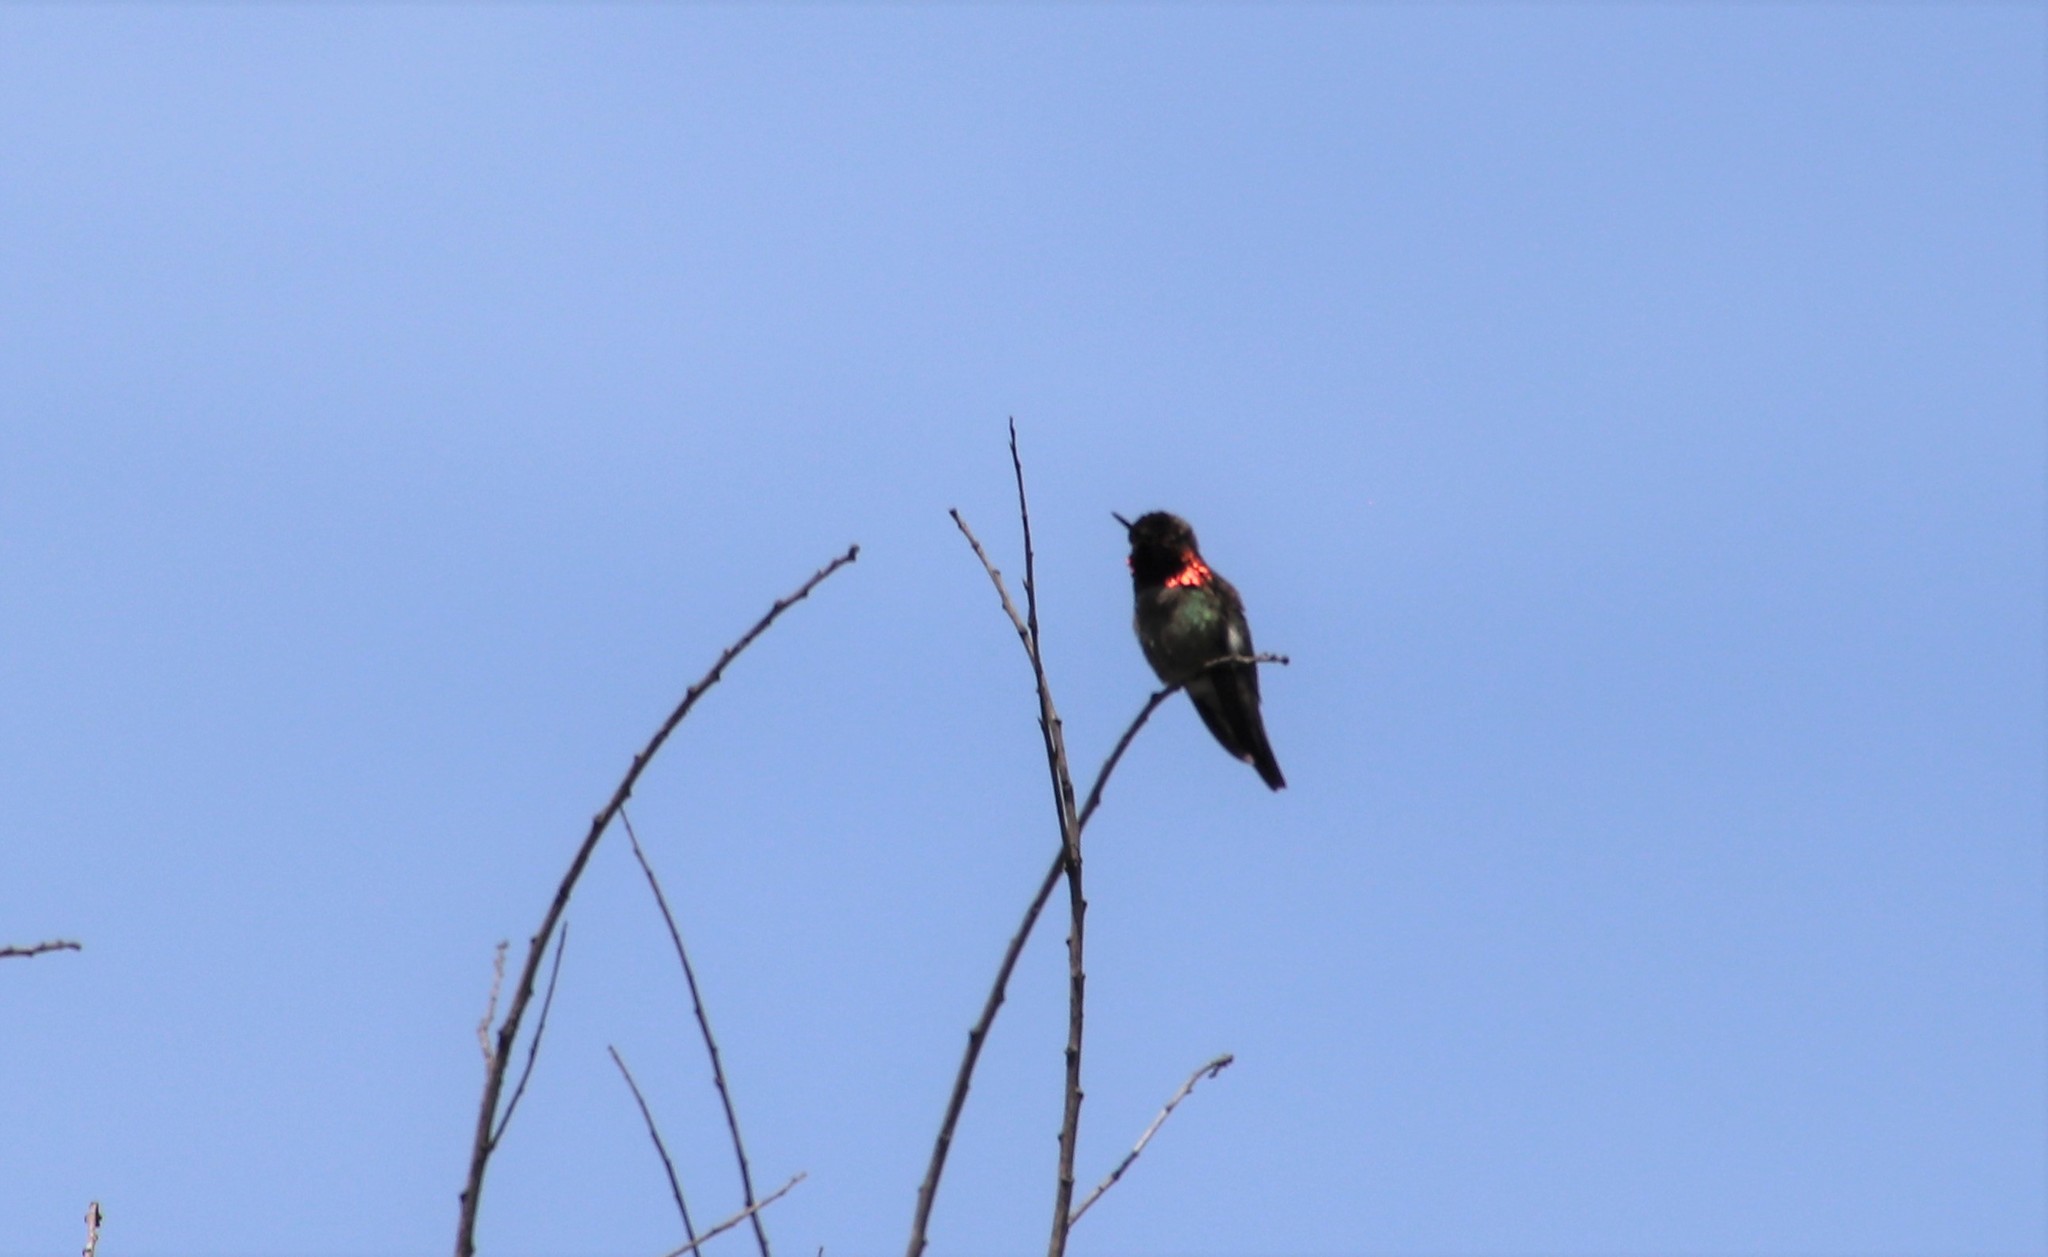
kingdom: Animalia
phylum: Chordata
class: Aves
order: Apodiformes
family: Trochilidae
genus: Calypte
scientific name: Calypte anna
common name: Anna's hummingbird
